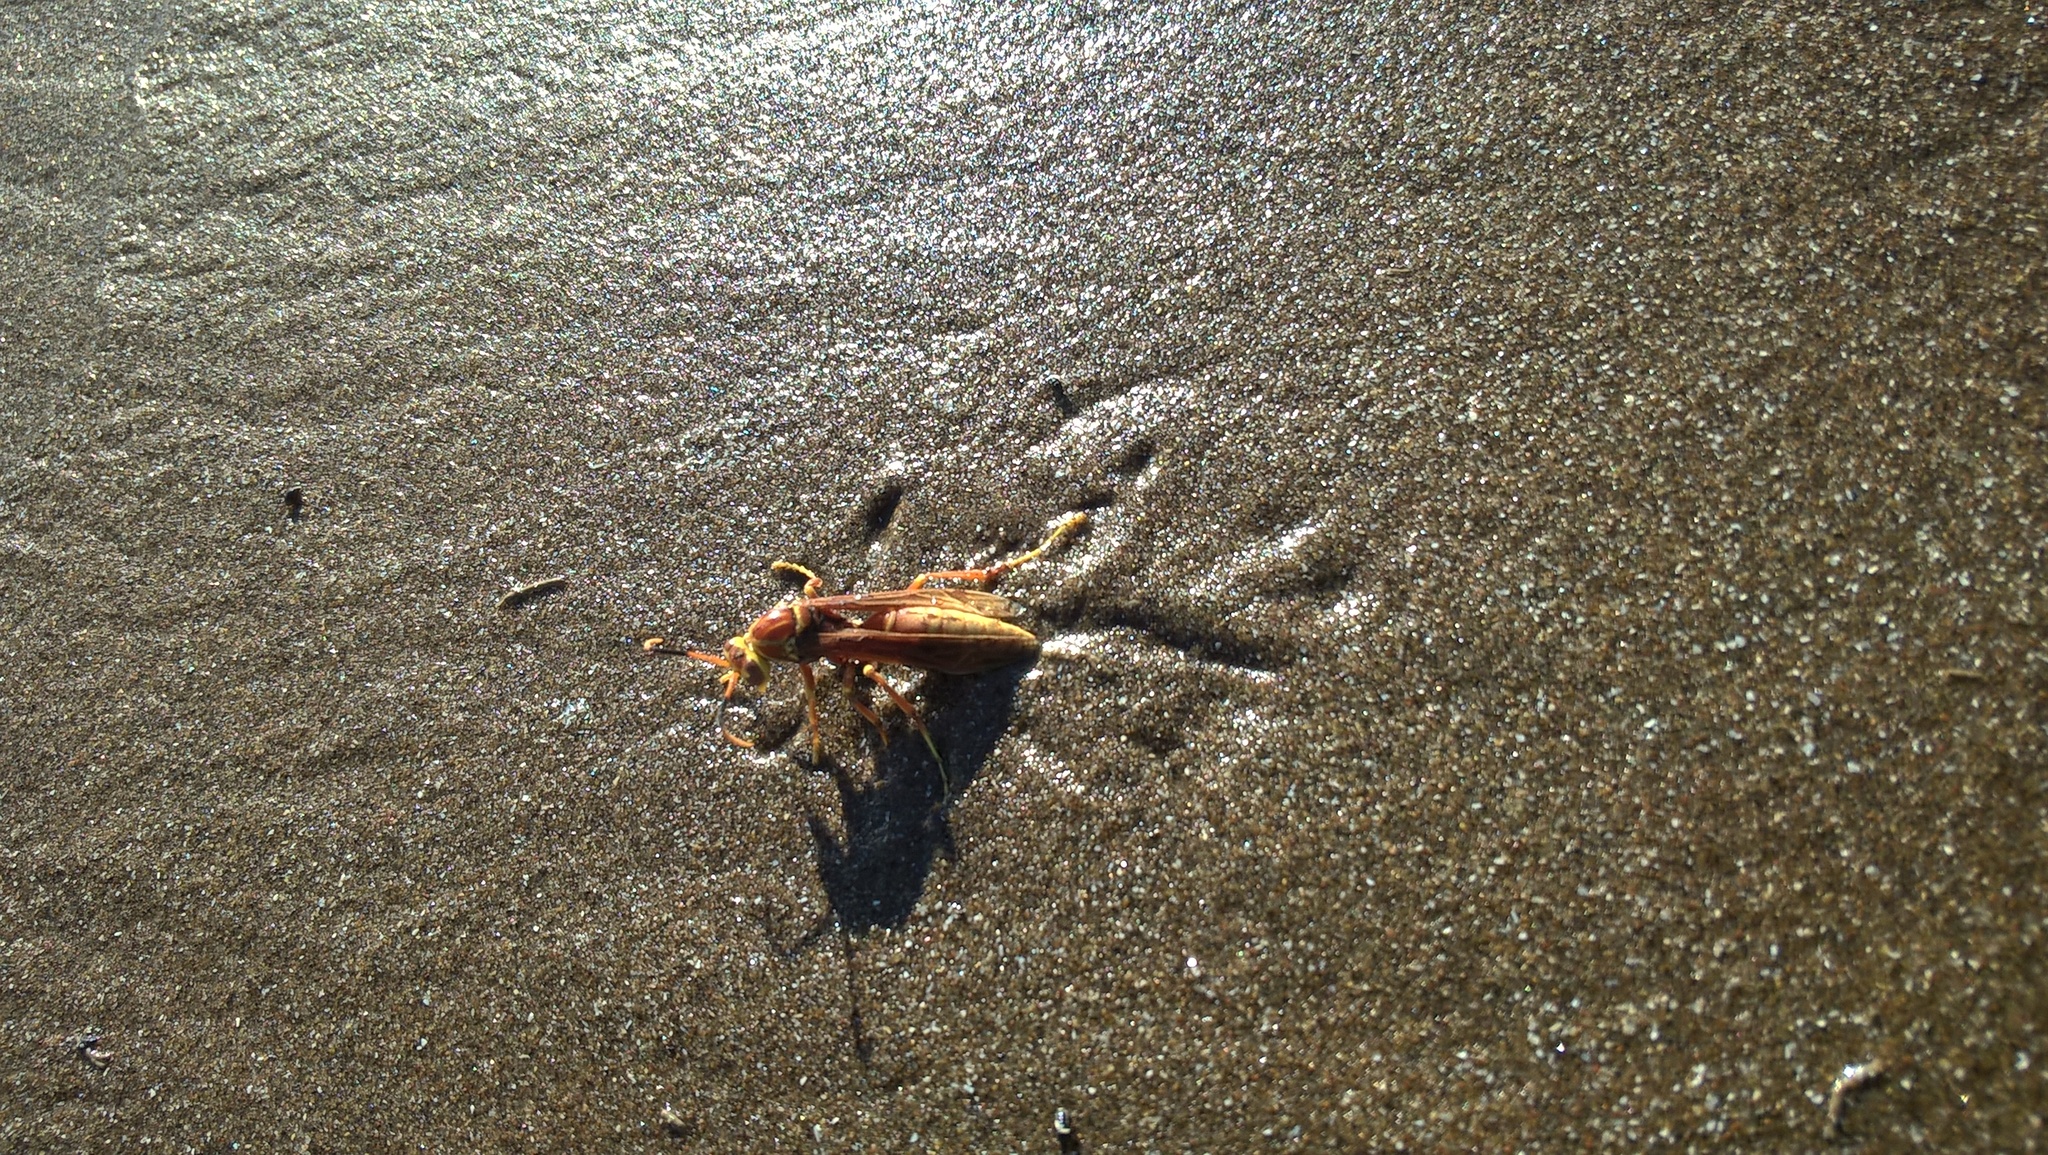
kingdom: Animalia
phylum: Arthropoda
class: Insecta
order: Hymenoptera
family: Eumenidae
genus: Polistes
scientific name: Polistes cavapyta
